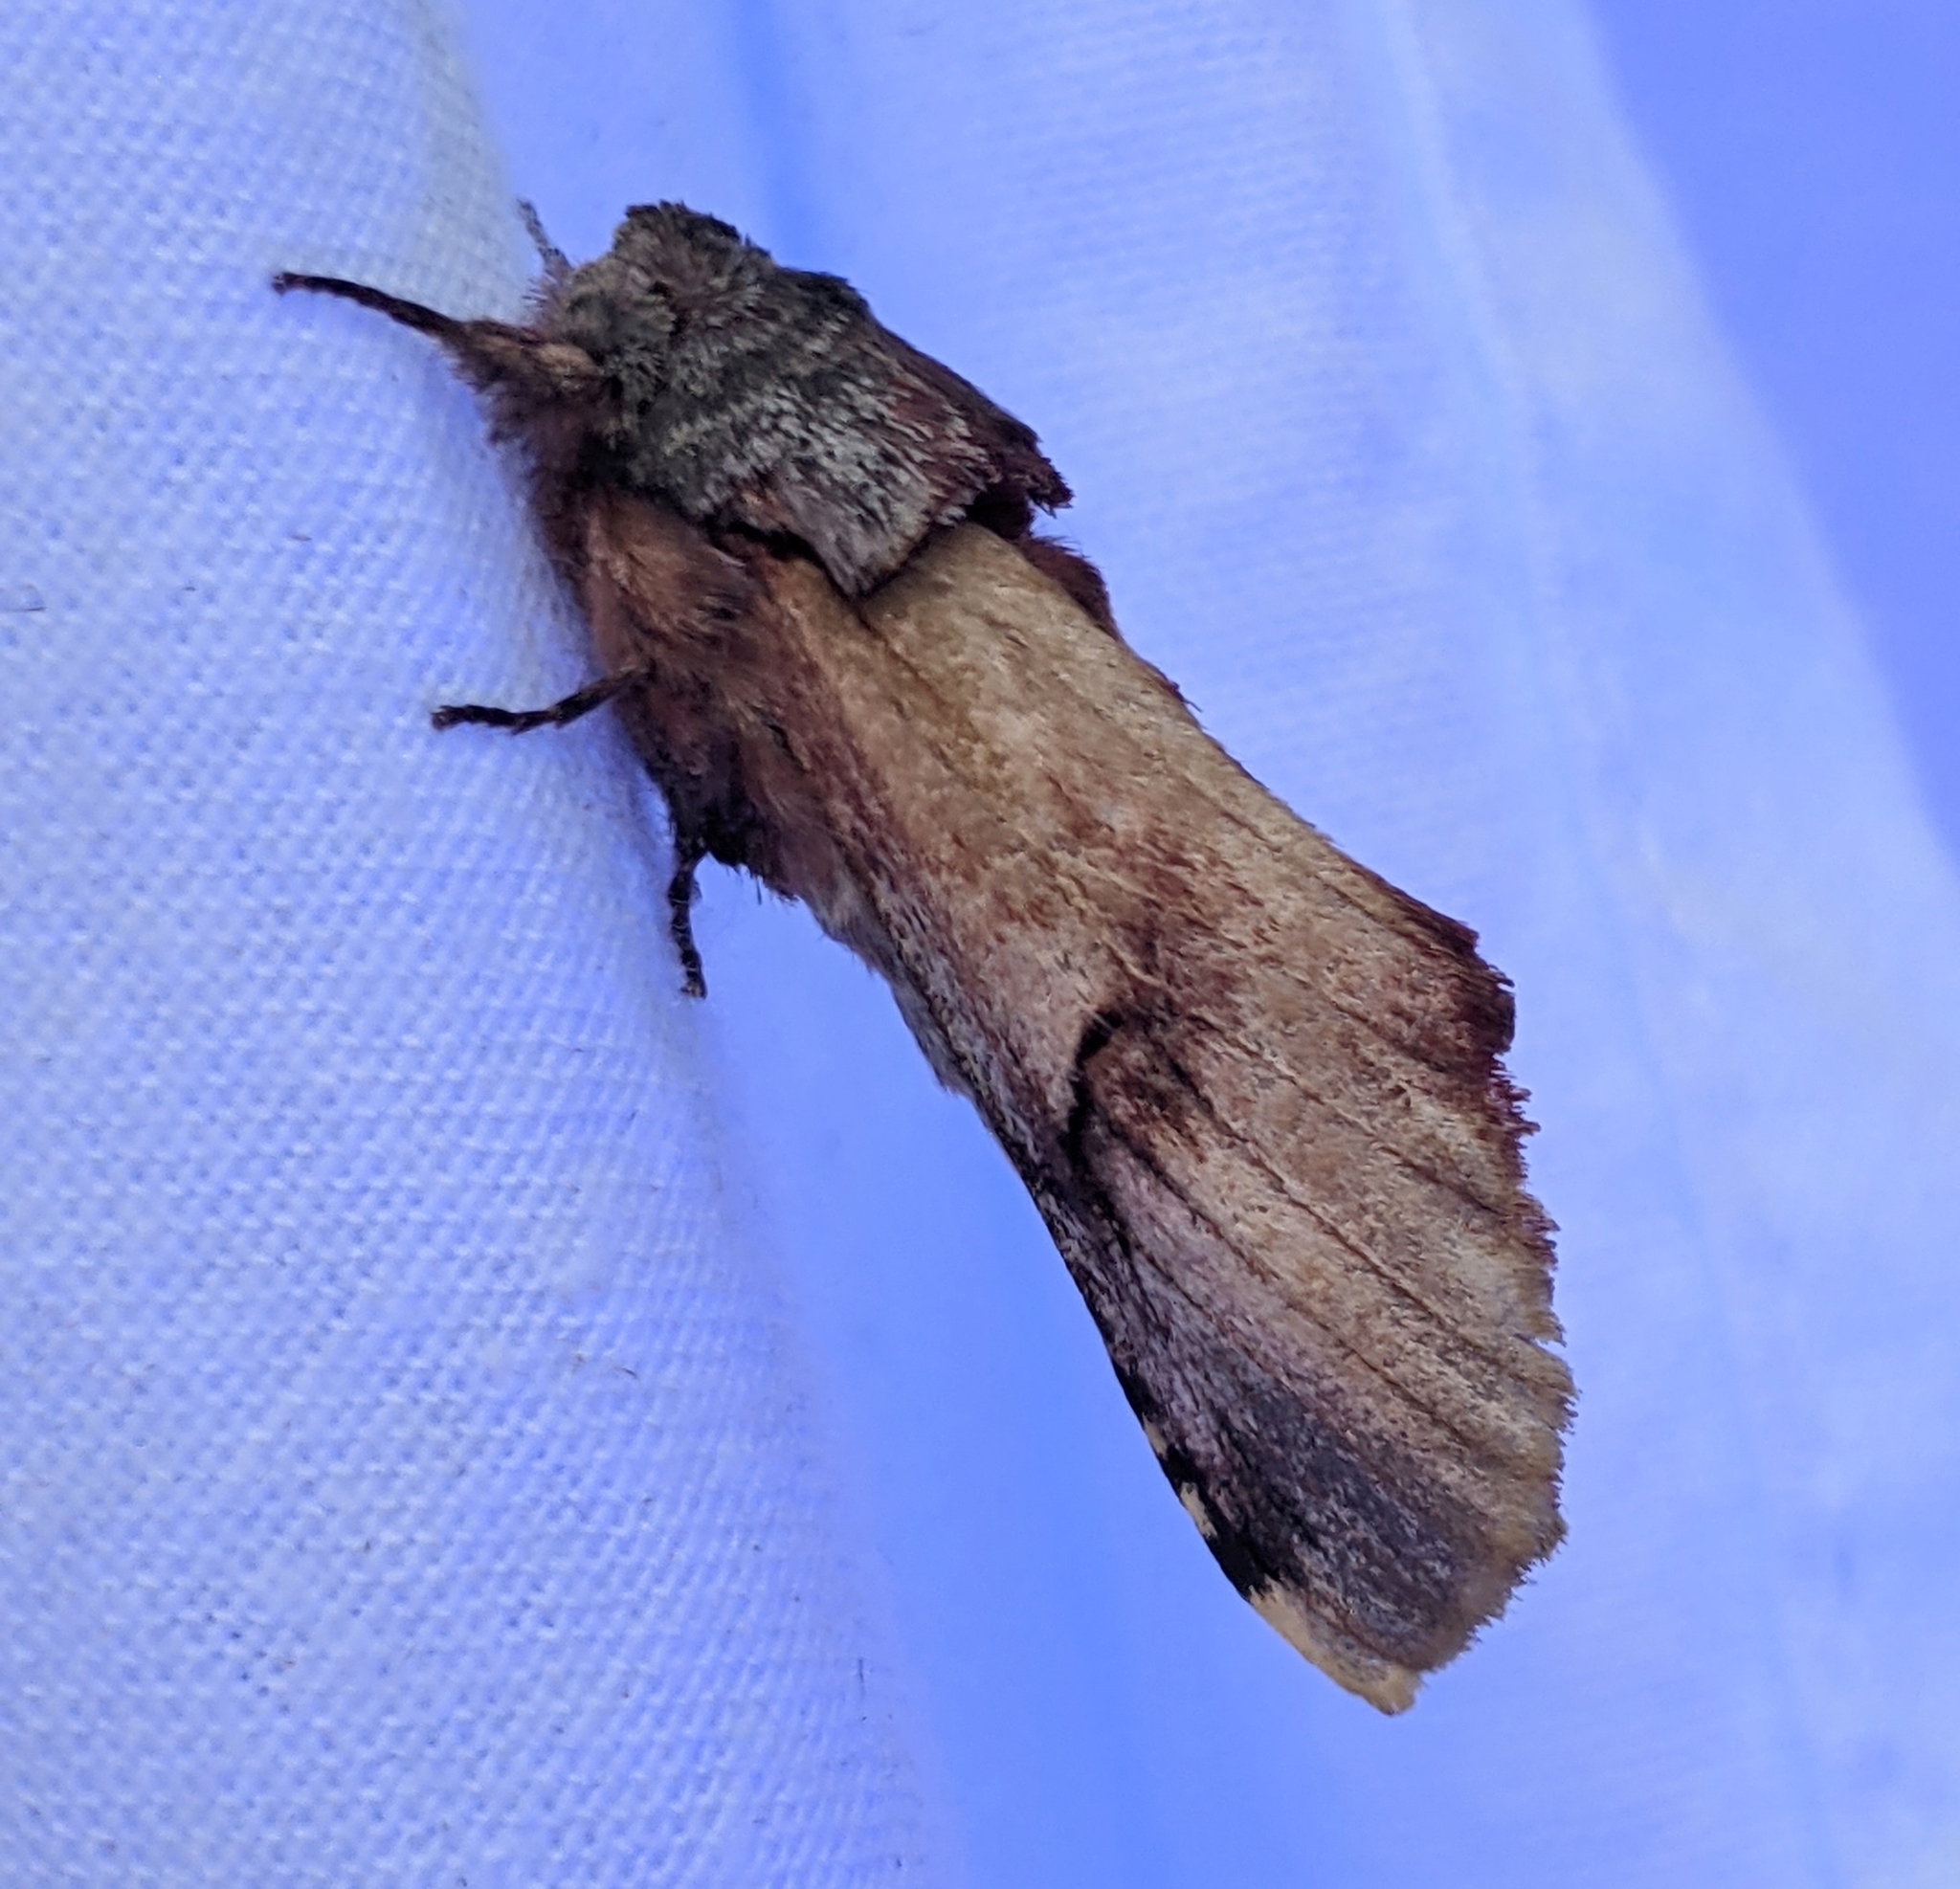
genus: Ianassa
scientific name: Ianassa
